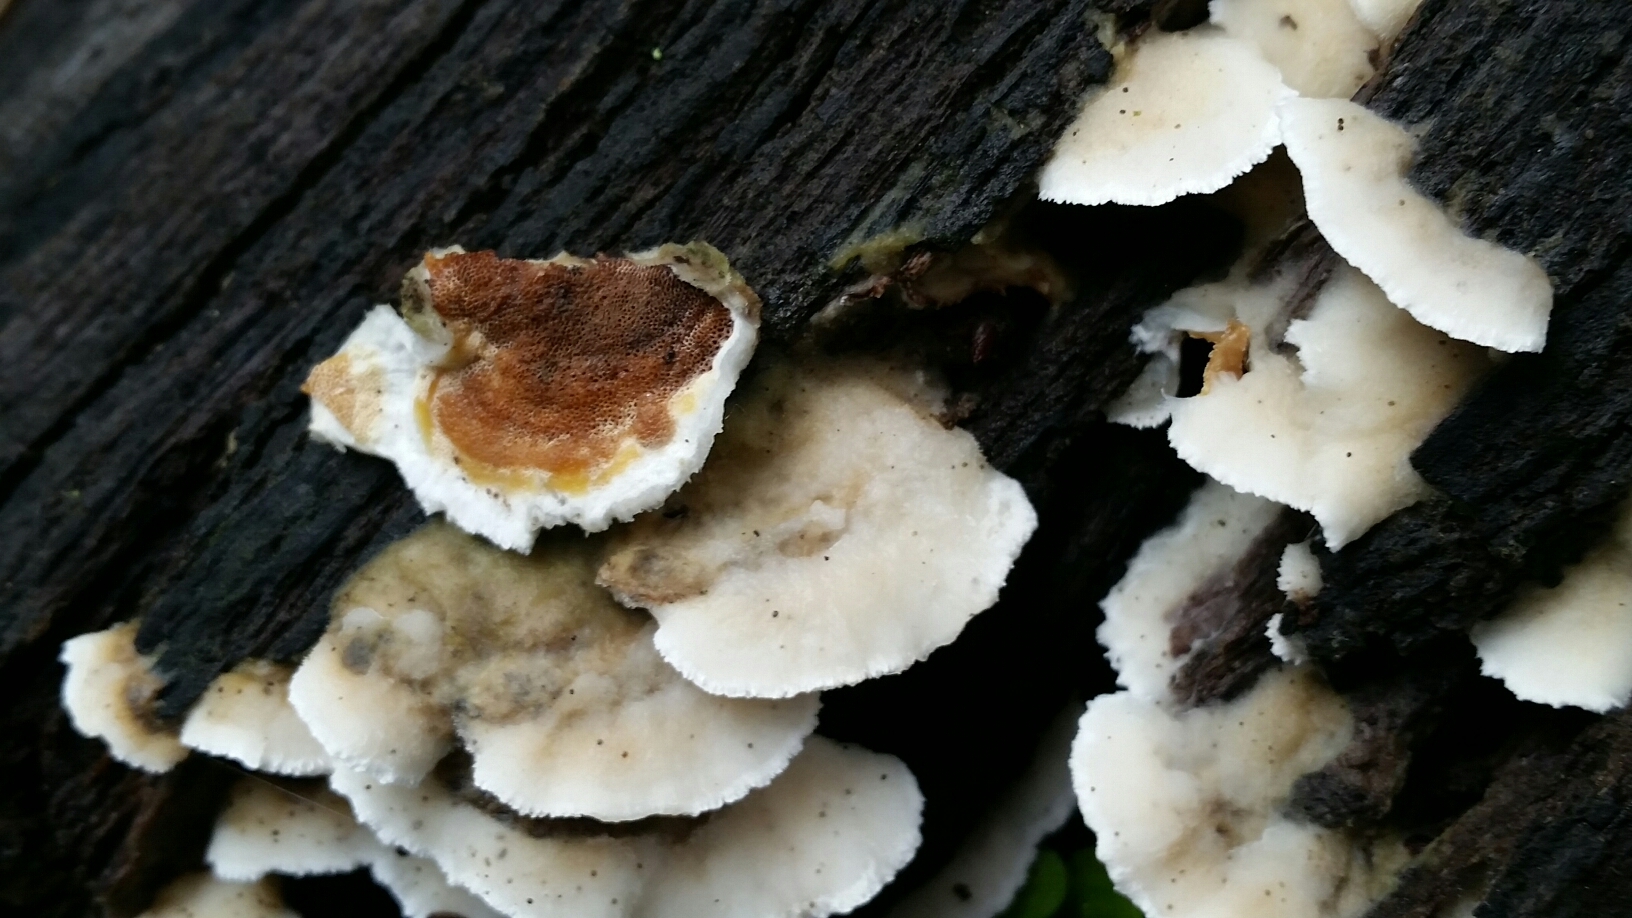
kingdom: Fungi
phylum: Basidiomycota
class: Agaricomycetes
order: Polyporales
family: Irpicaceae
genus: Vitreoporus
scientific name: Vitreoporus dichrous
